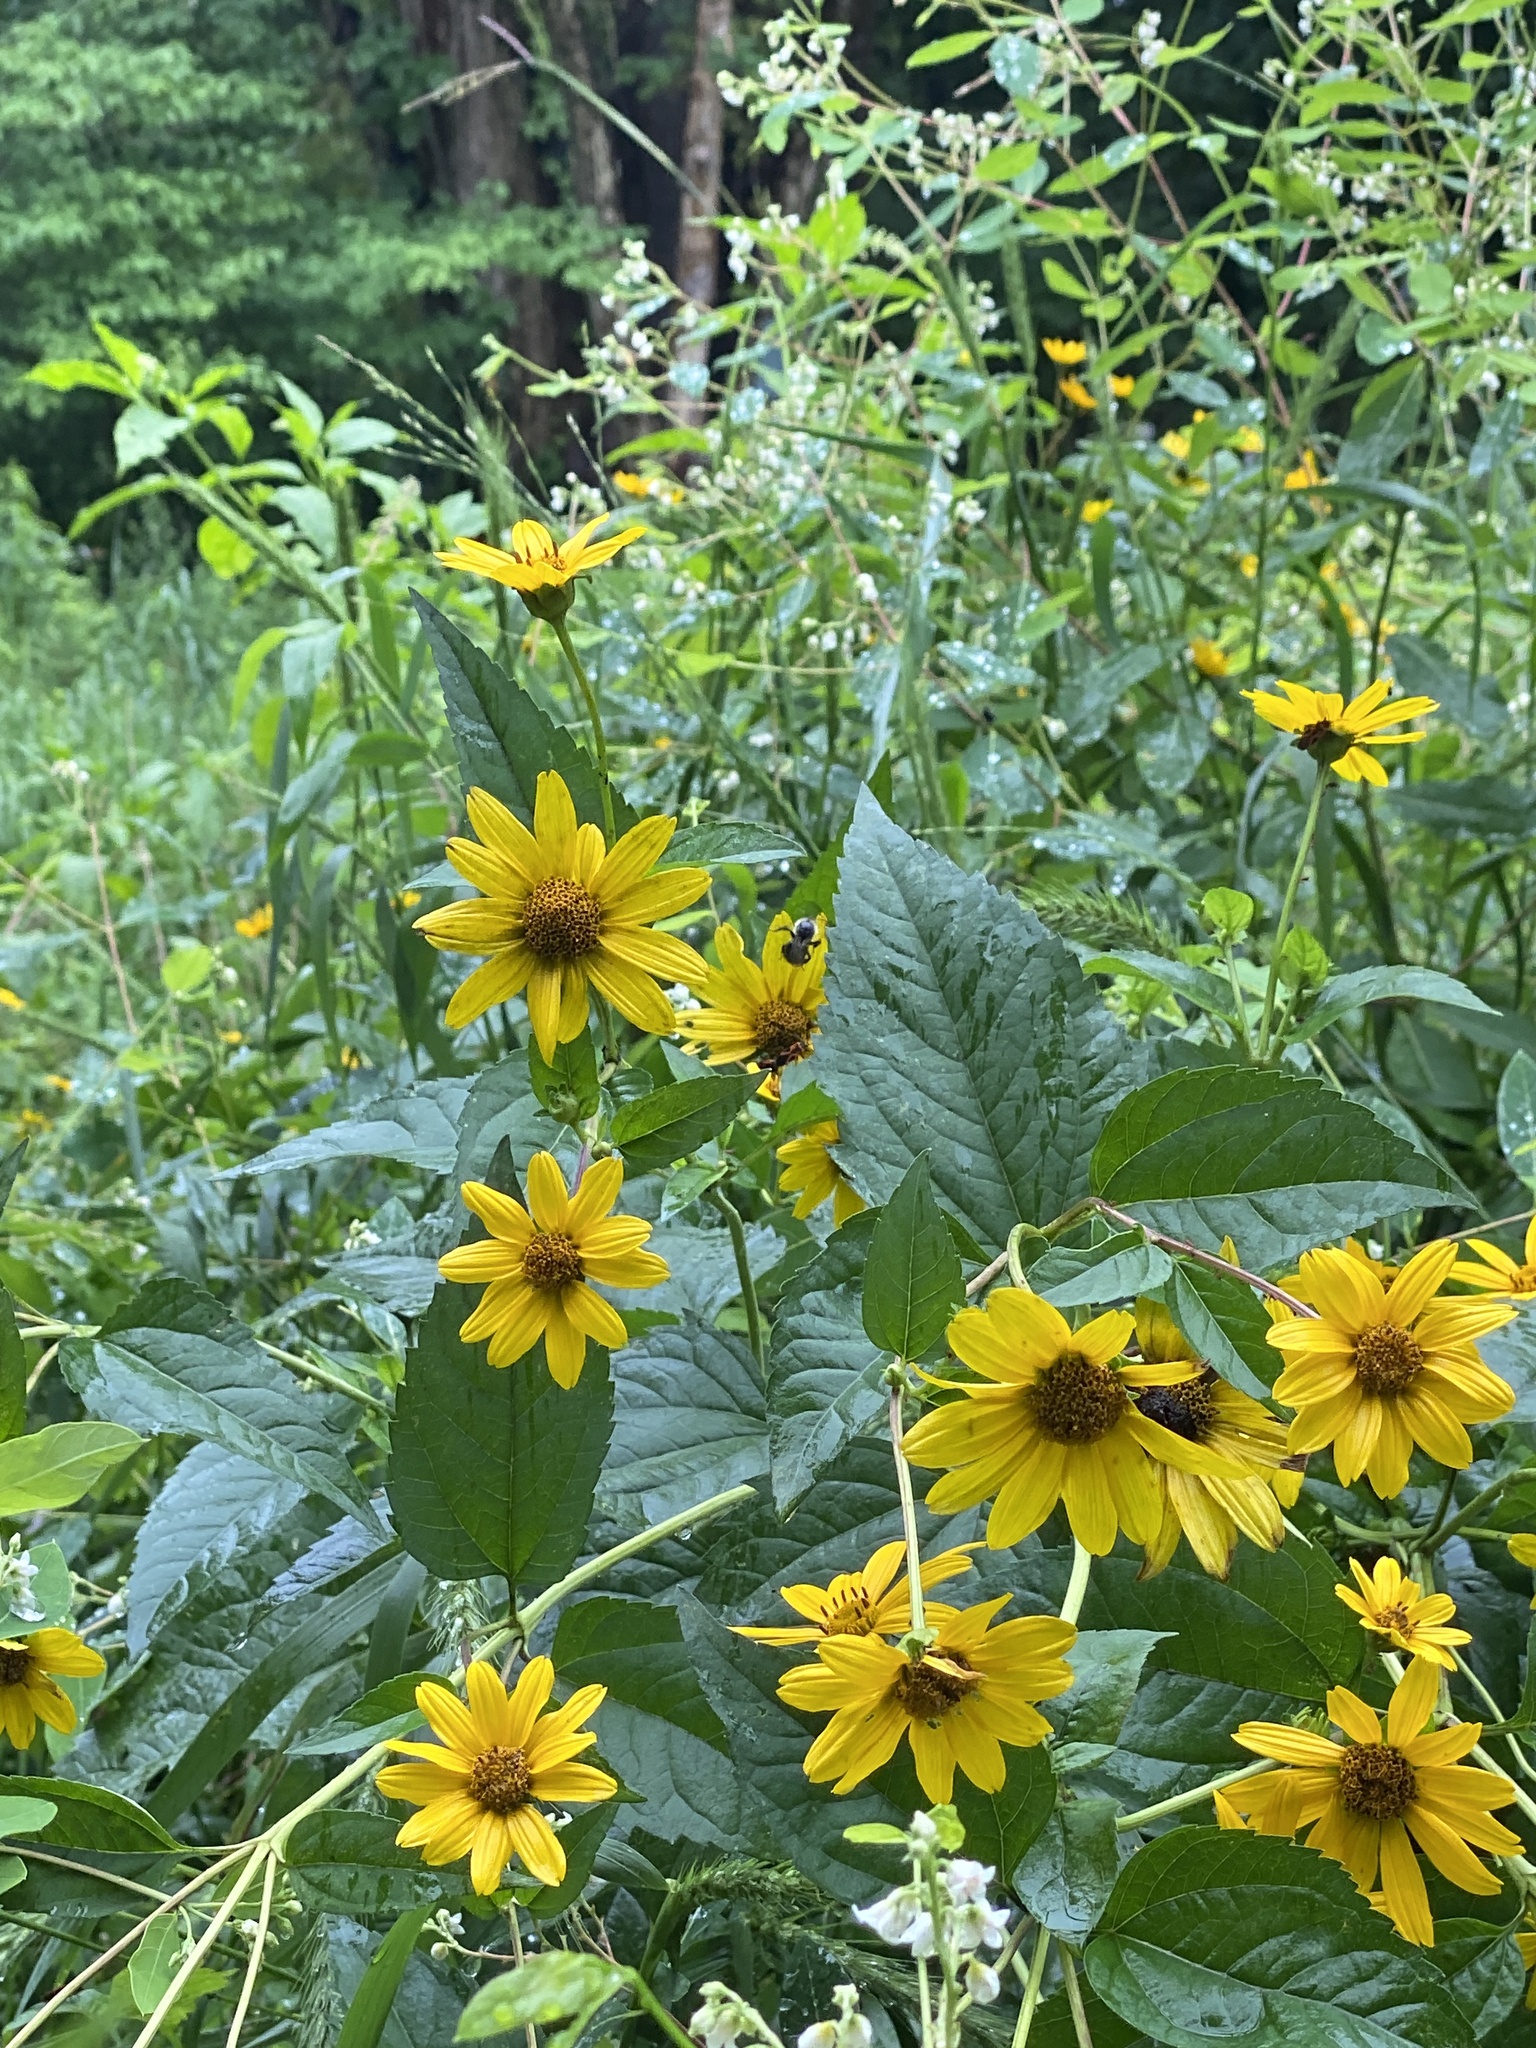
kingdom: Plantae
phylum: Tracheophyta
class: Magnoliopsida
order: Asterales
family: Asteraceae
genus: Heliopsis
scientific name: Heliopsis helianthoides
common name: False sunflower
